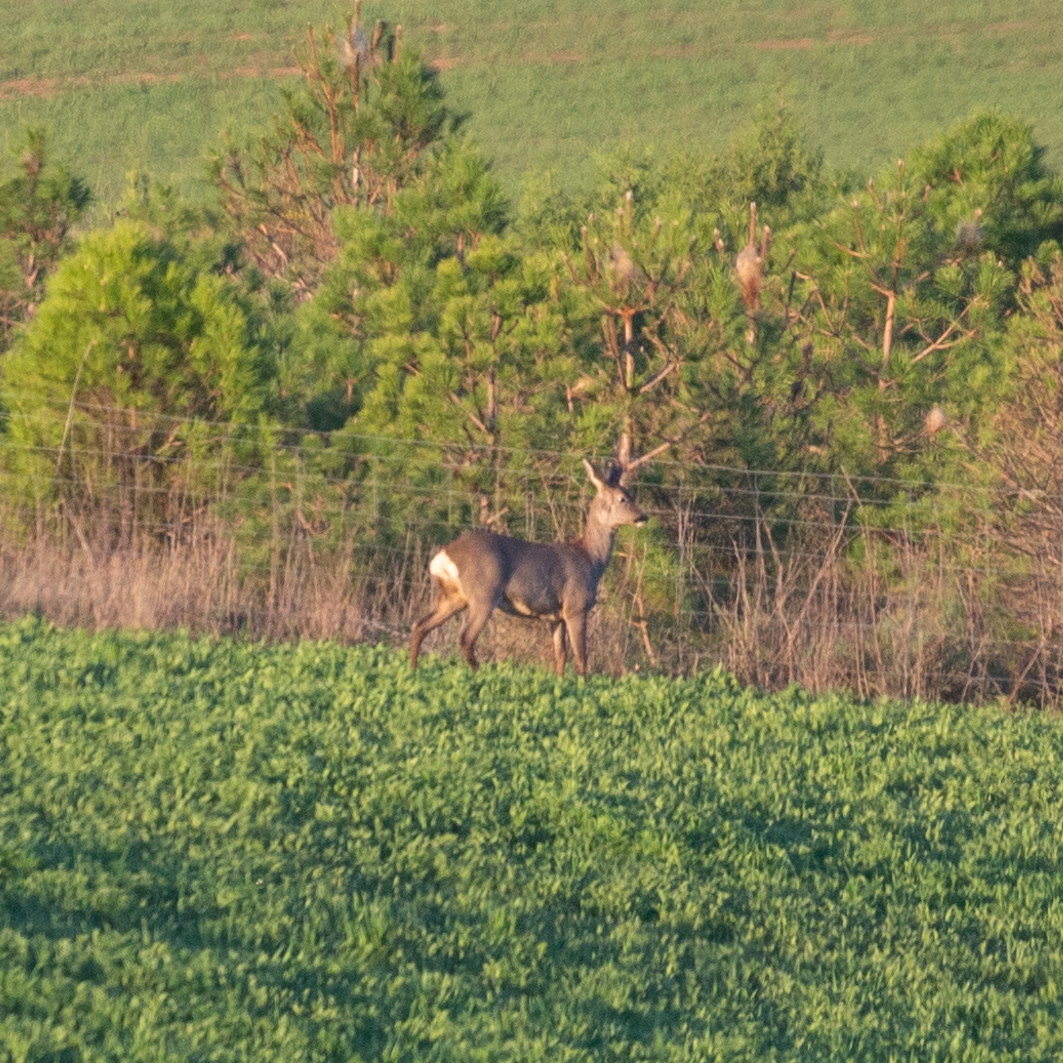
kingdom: Animalia
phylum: Chordata
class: Mammalia
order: Artiodactyla
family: Cervidae
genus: Capreolus
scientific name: Capreolus capreolus
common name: Western roe deer
